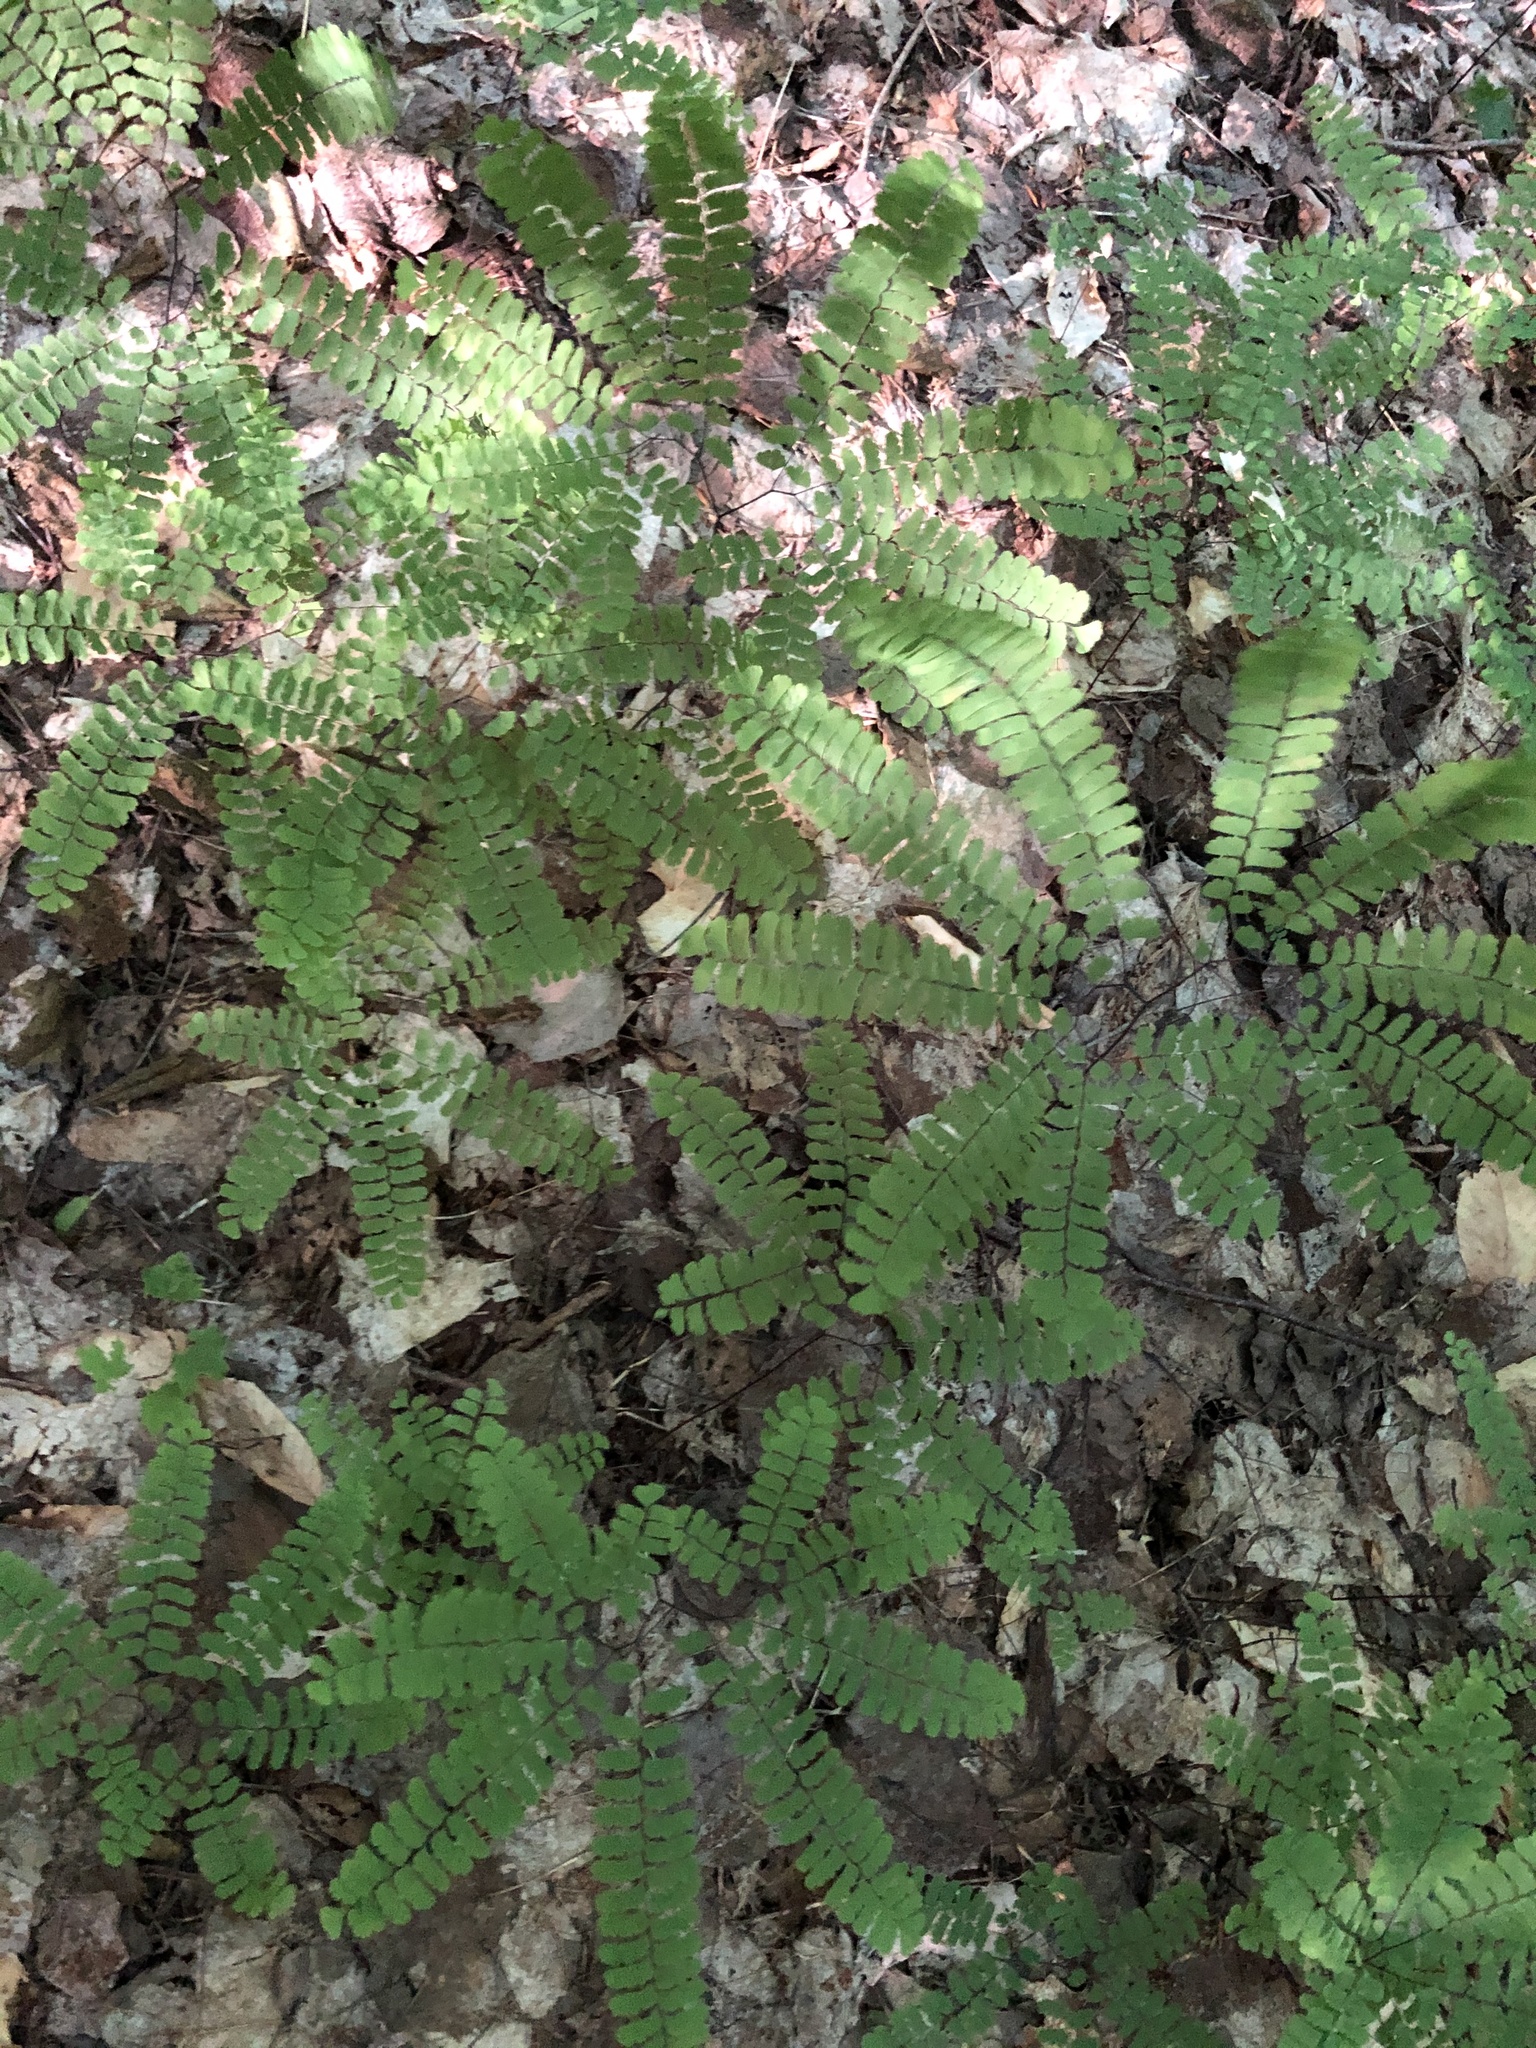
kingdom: Plantae
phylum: Tracheophyta
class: Polypodiopsida
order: Polypodiales
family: Pteridaceae
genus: Adiantum
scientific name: Adiantum pedatum
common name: Five-finger fern
